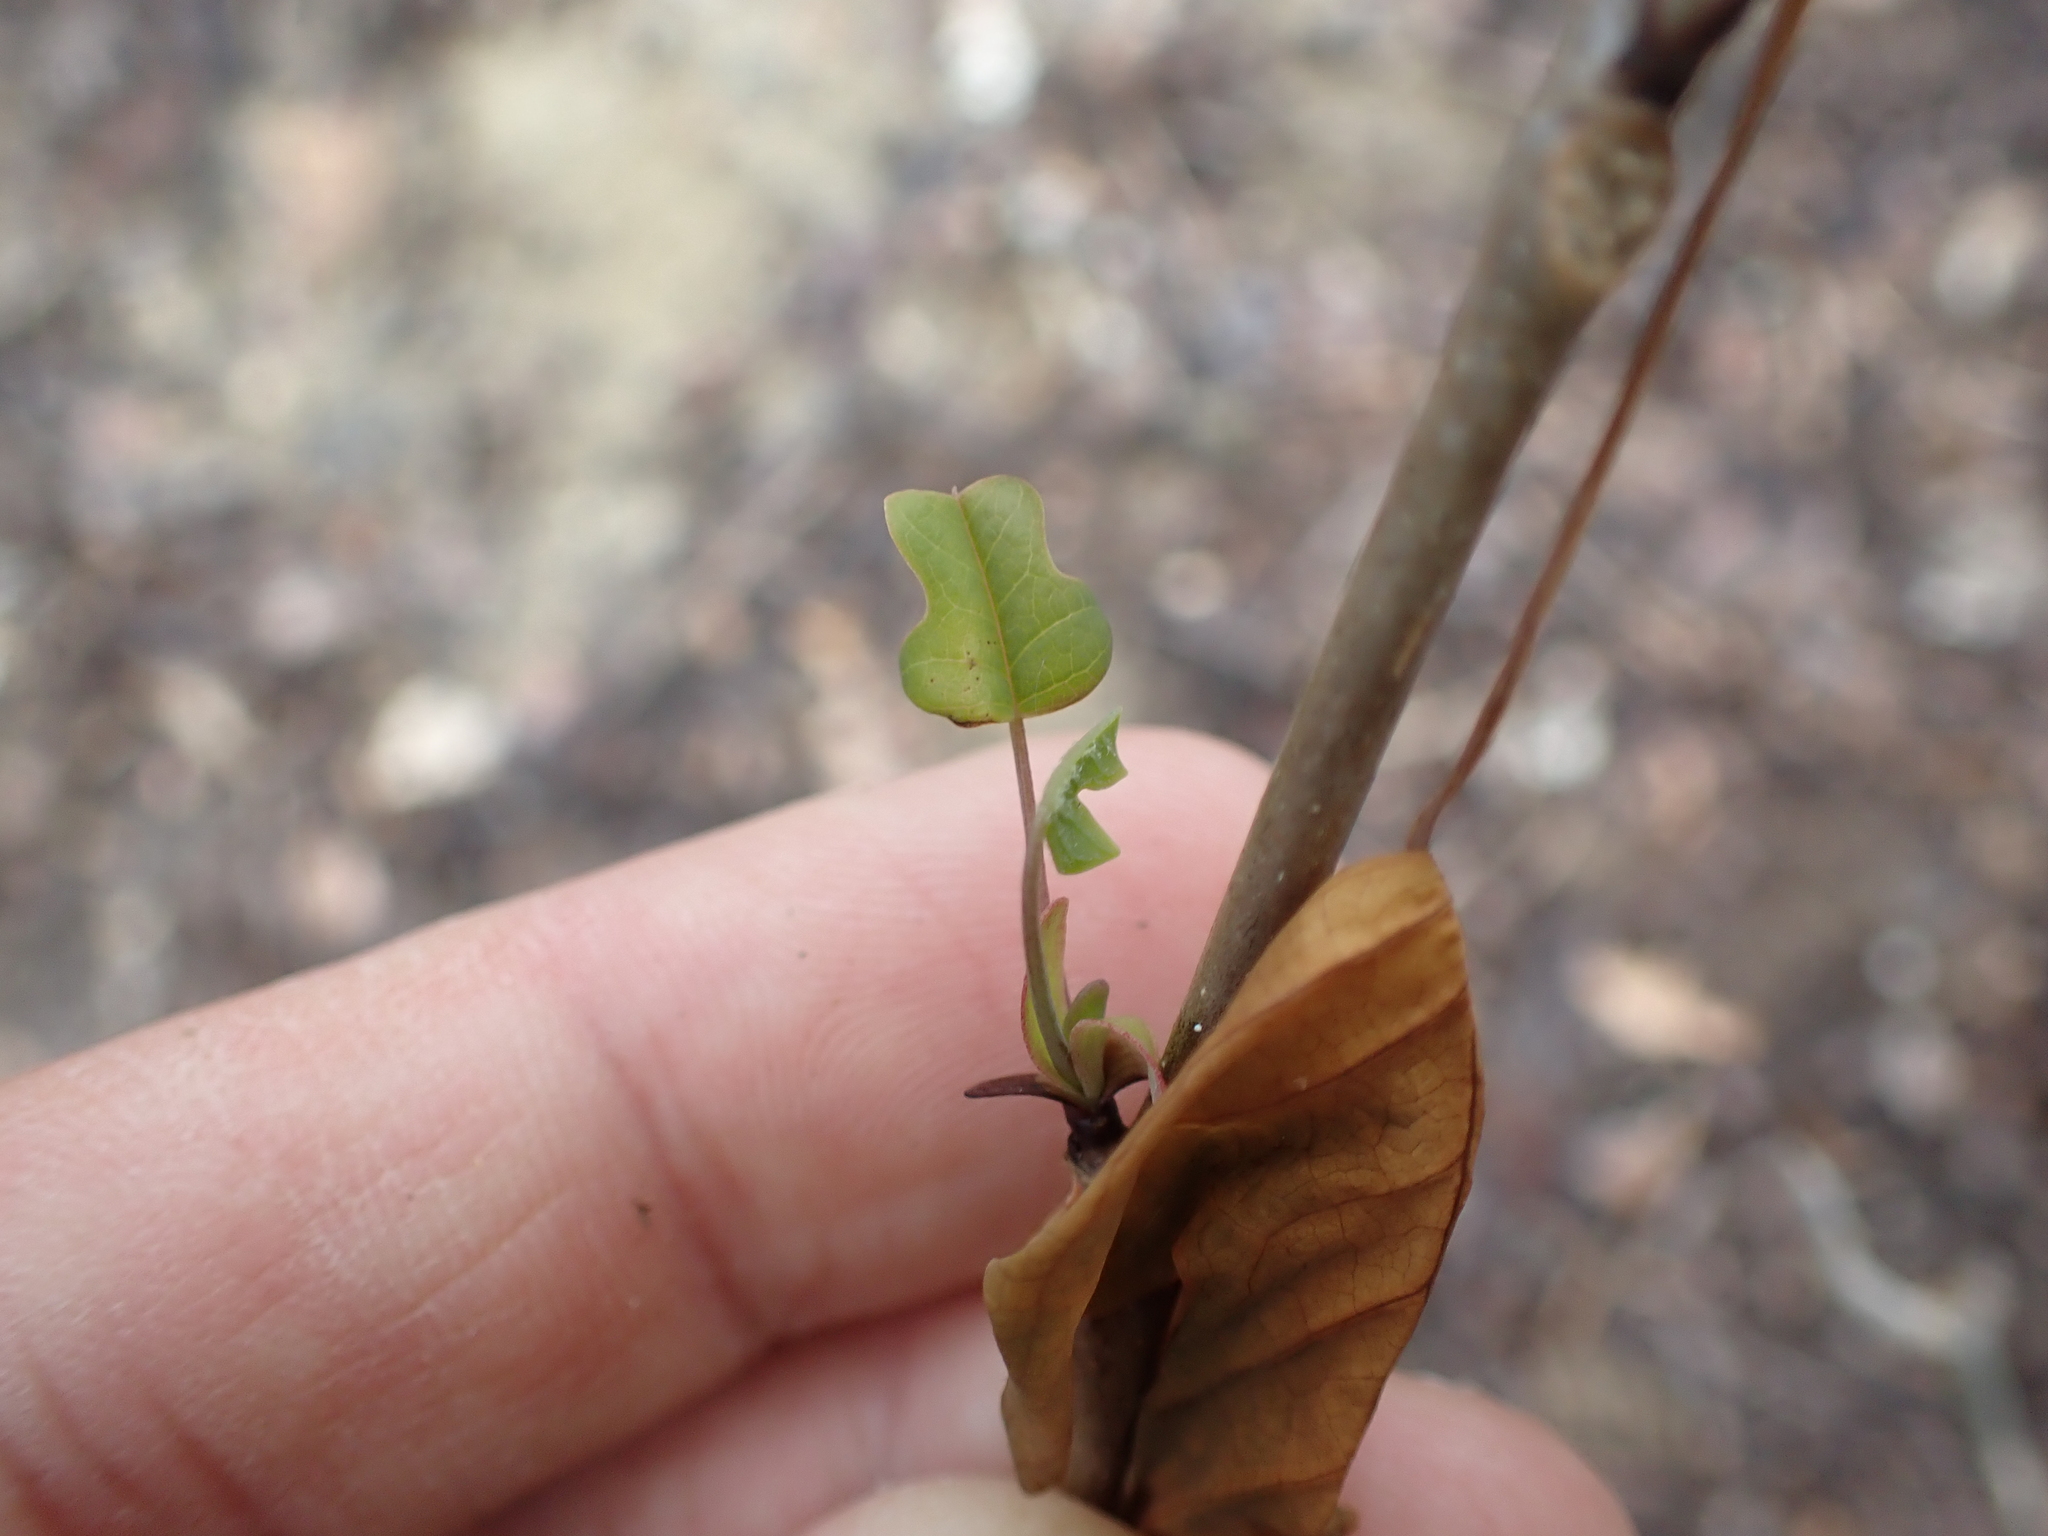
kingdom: Plantae
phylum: Tracheophyta
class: Magnoliopsida
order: Magnoliales
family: Magnoliaceae
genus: Liriodendron
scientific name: Liriodendron tulipifera
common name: Tulip tree
